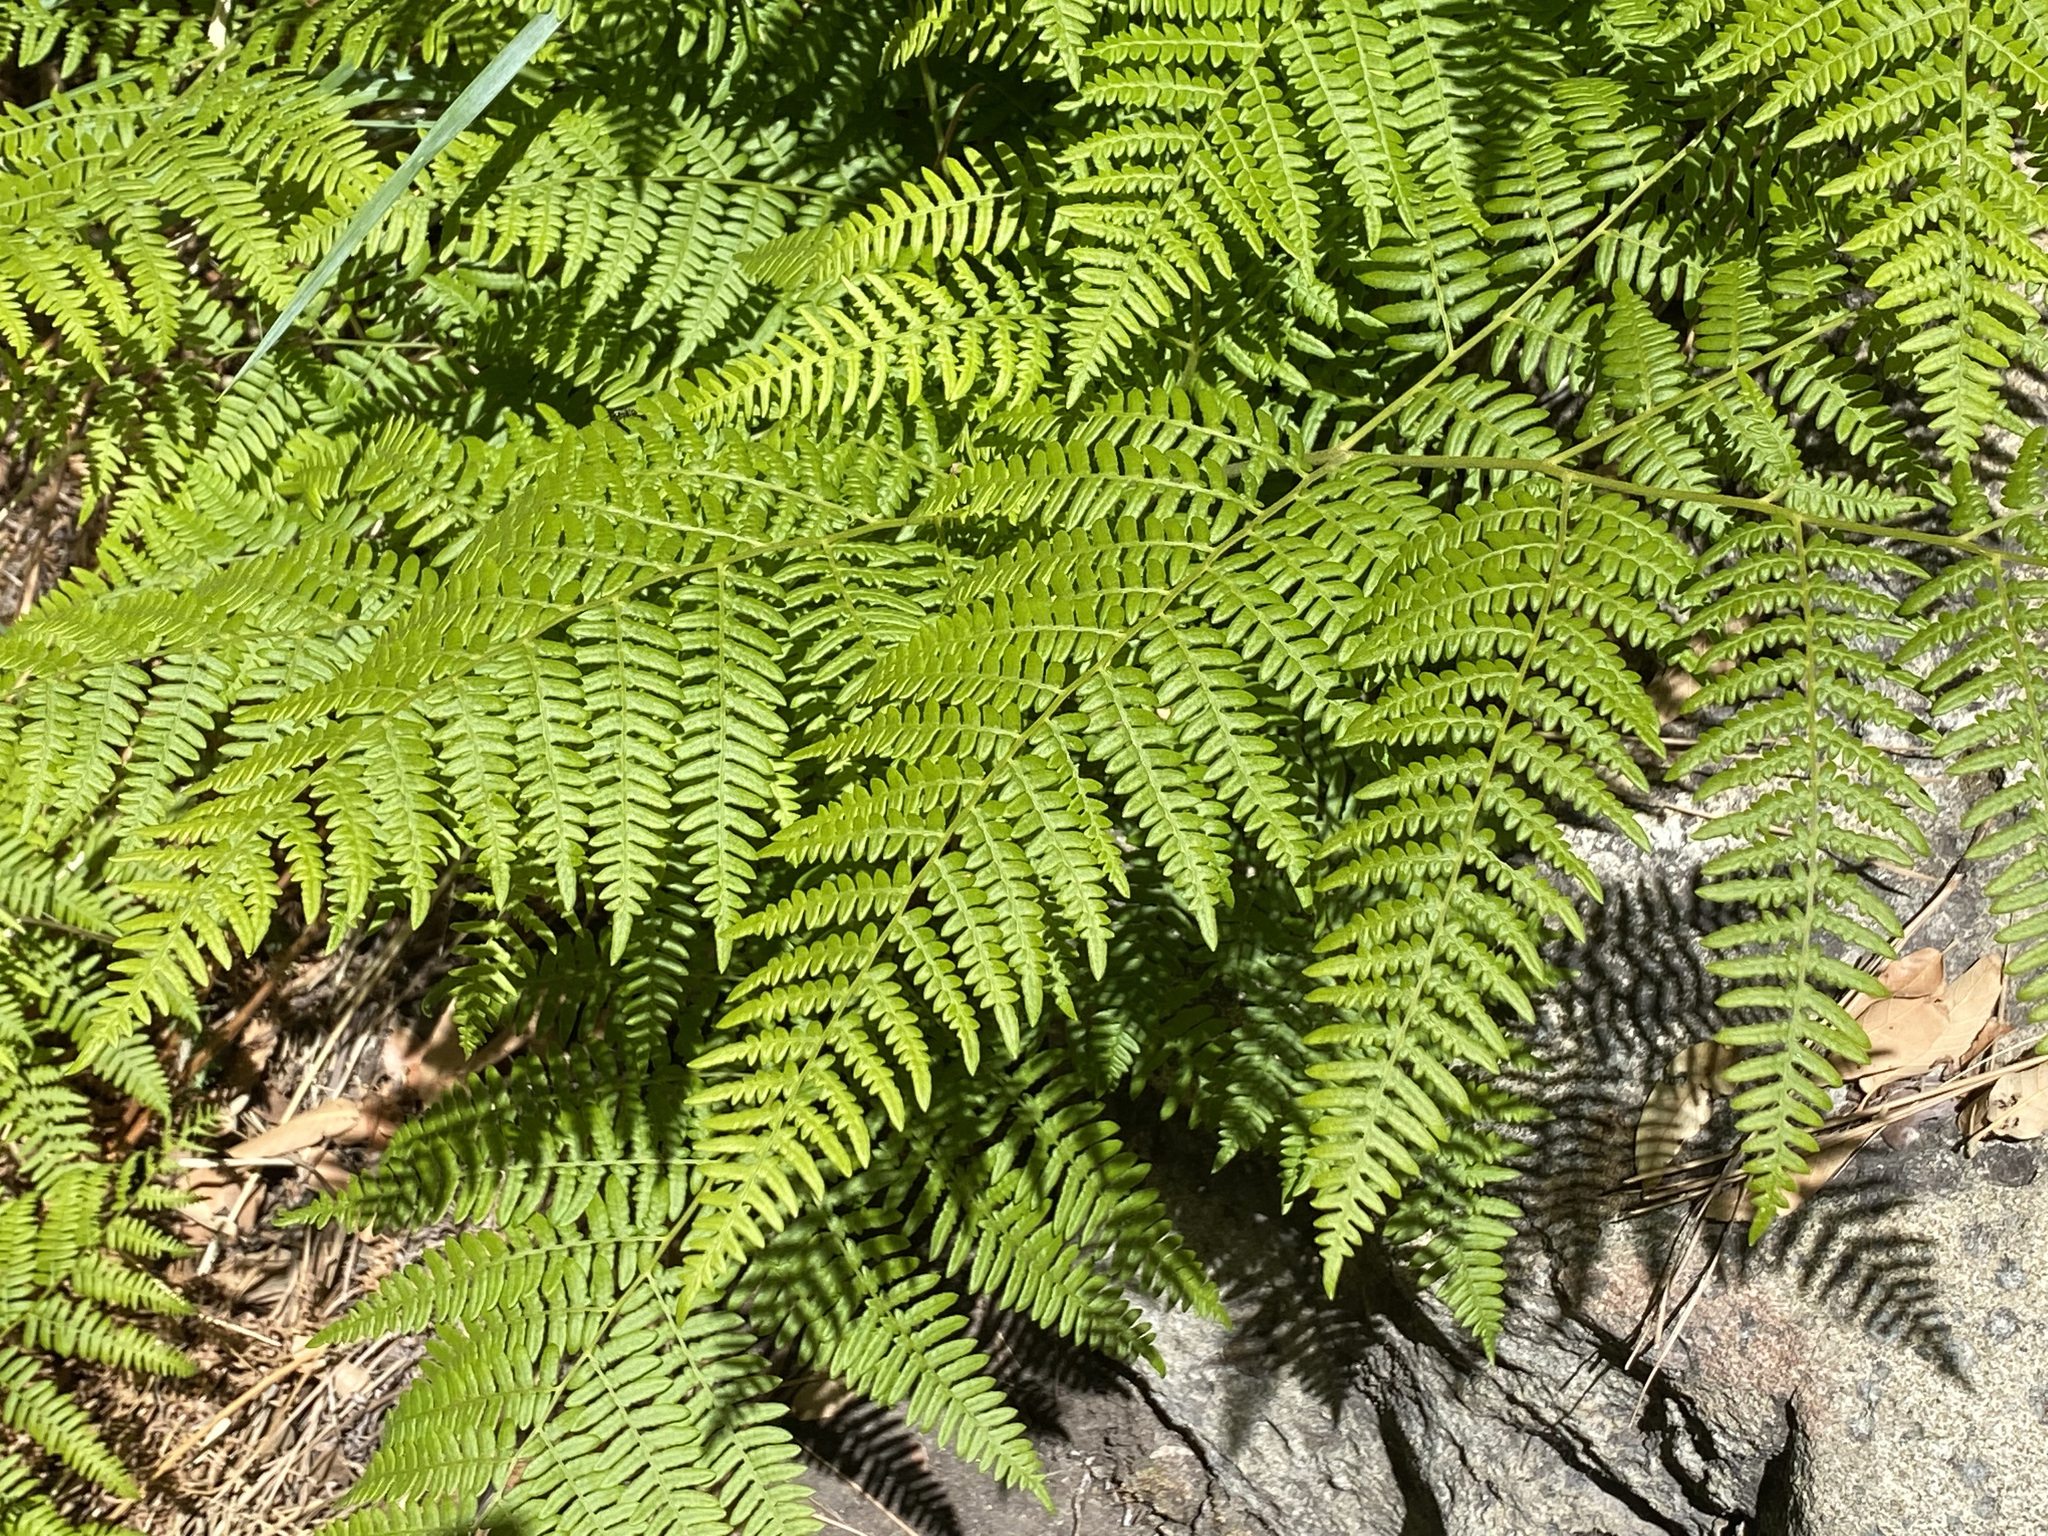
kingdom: Plantae
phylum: Tracheophyta
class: Polypodiopsida
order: Polypodiales
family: Dennstaedtiaceae
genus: Pteridium
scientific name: Pteridium aquilinum
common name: Bracken
